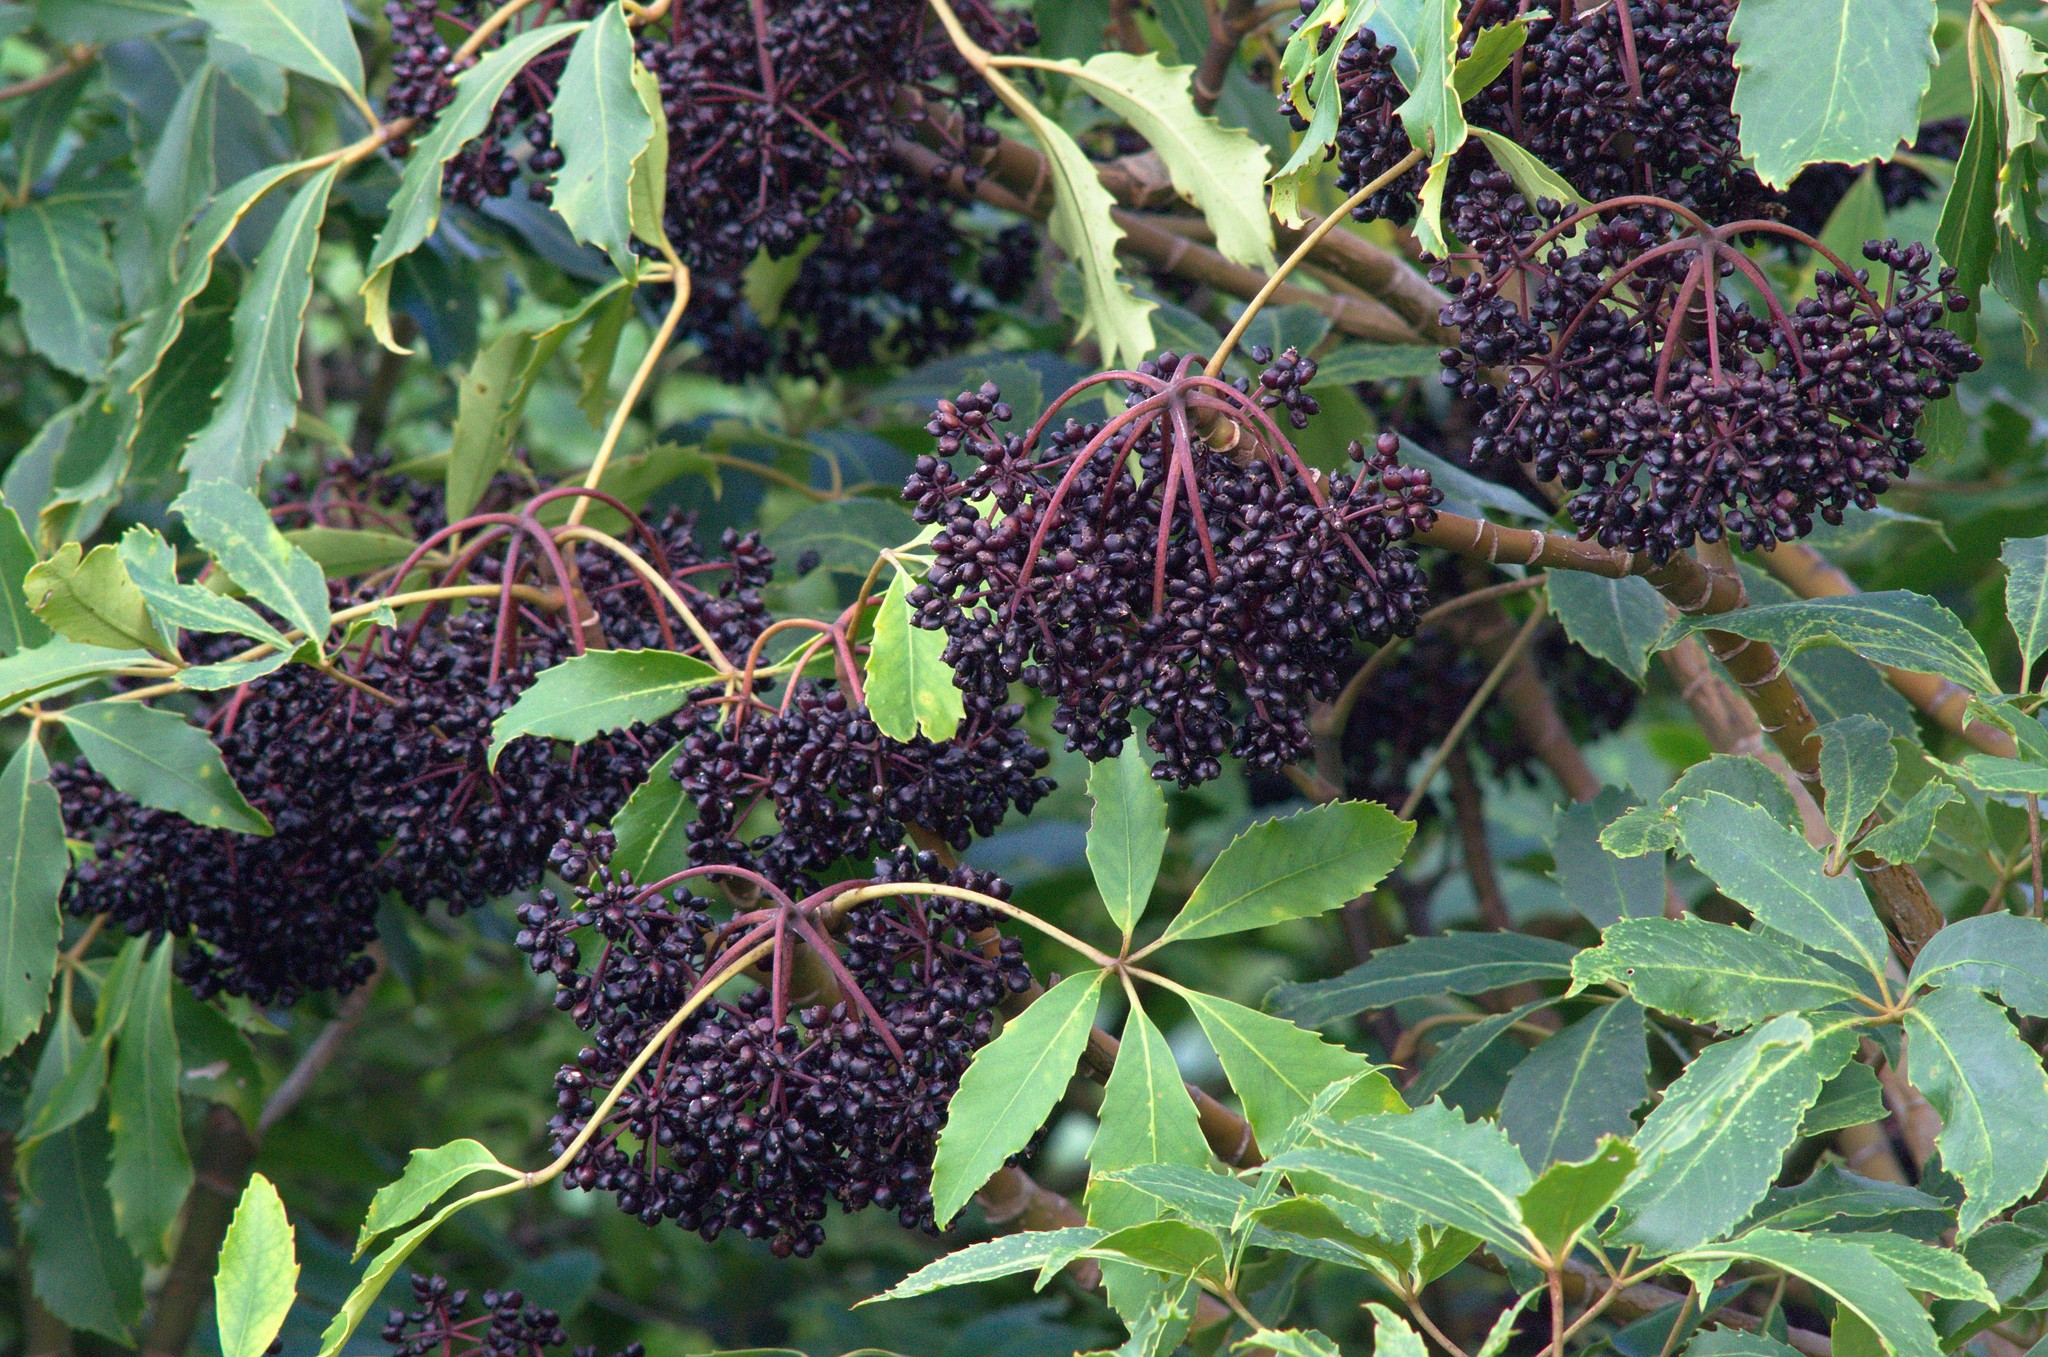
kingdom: Plantae
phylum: Tracheophyta
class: Magnoliopsida
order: Apiales
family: Araliaceae
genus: Neopanax
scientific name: Neopanax arboreus
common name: Five-fingers
